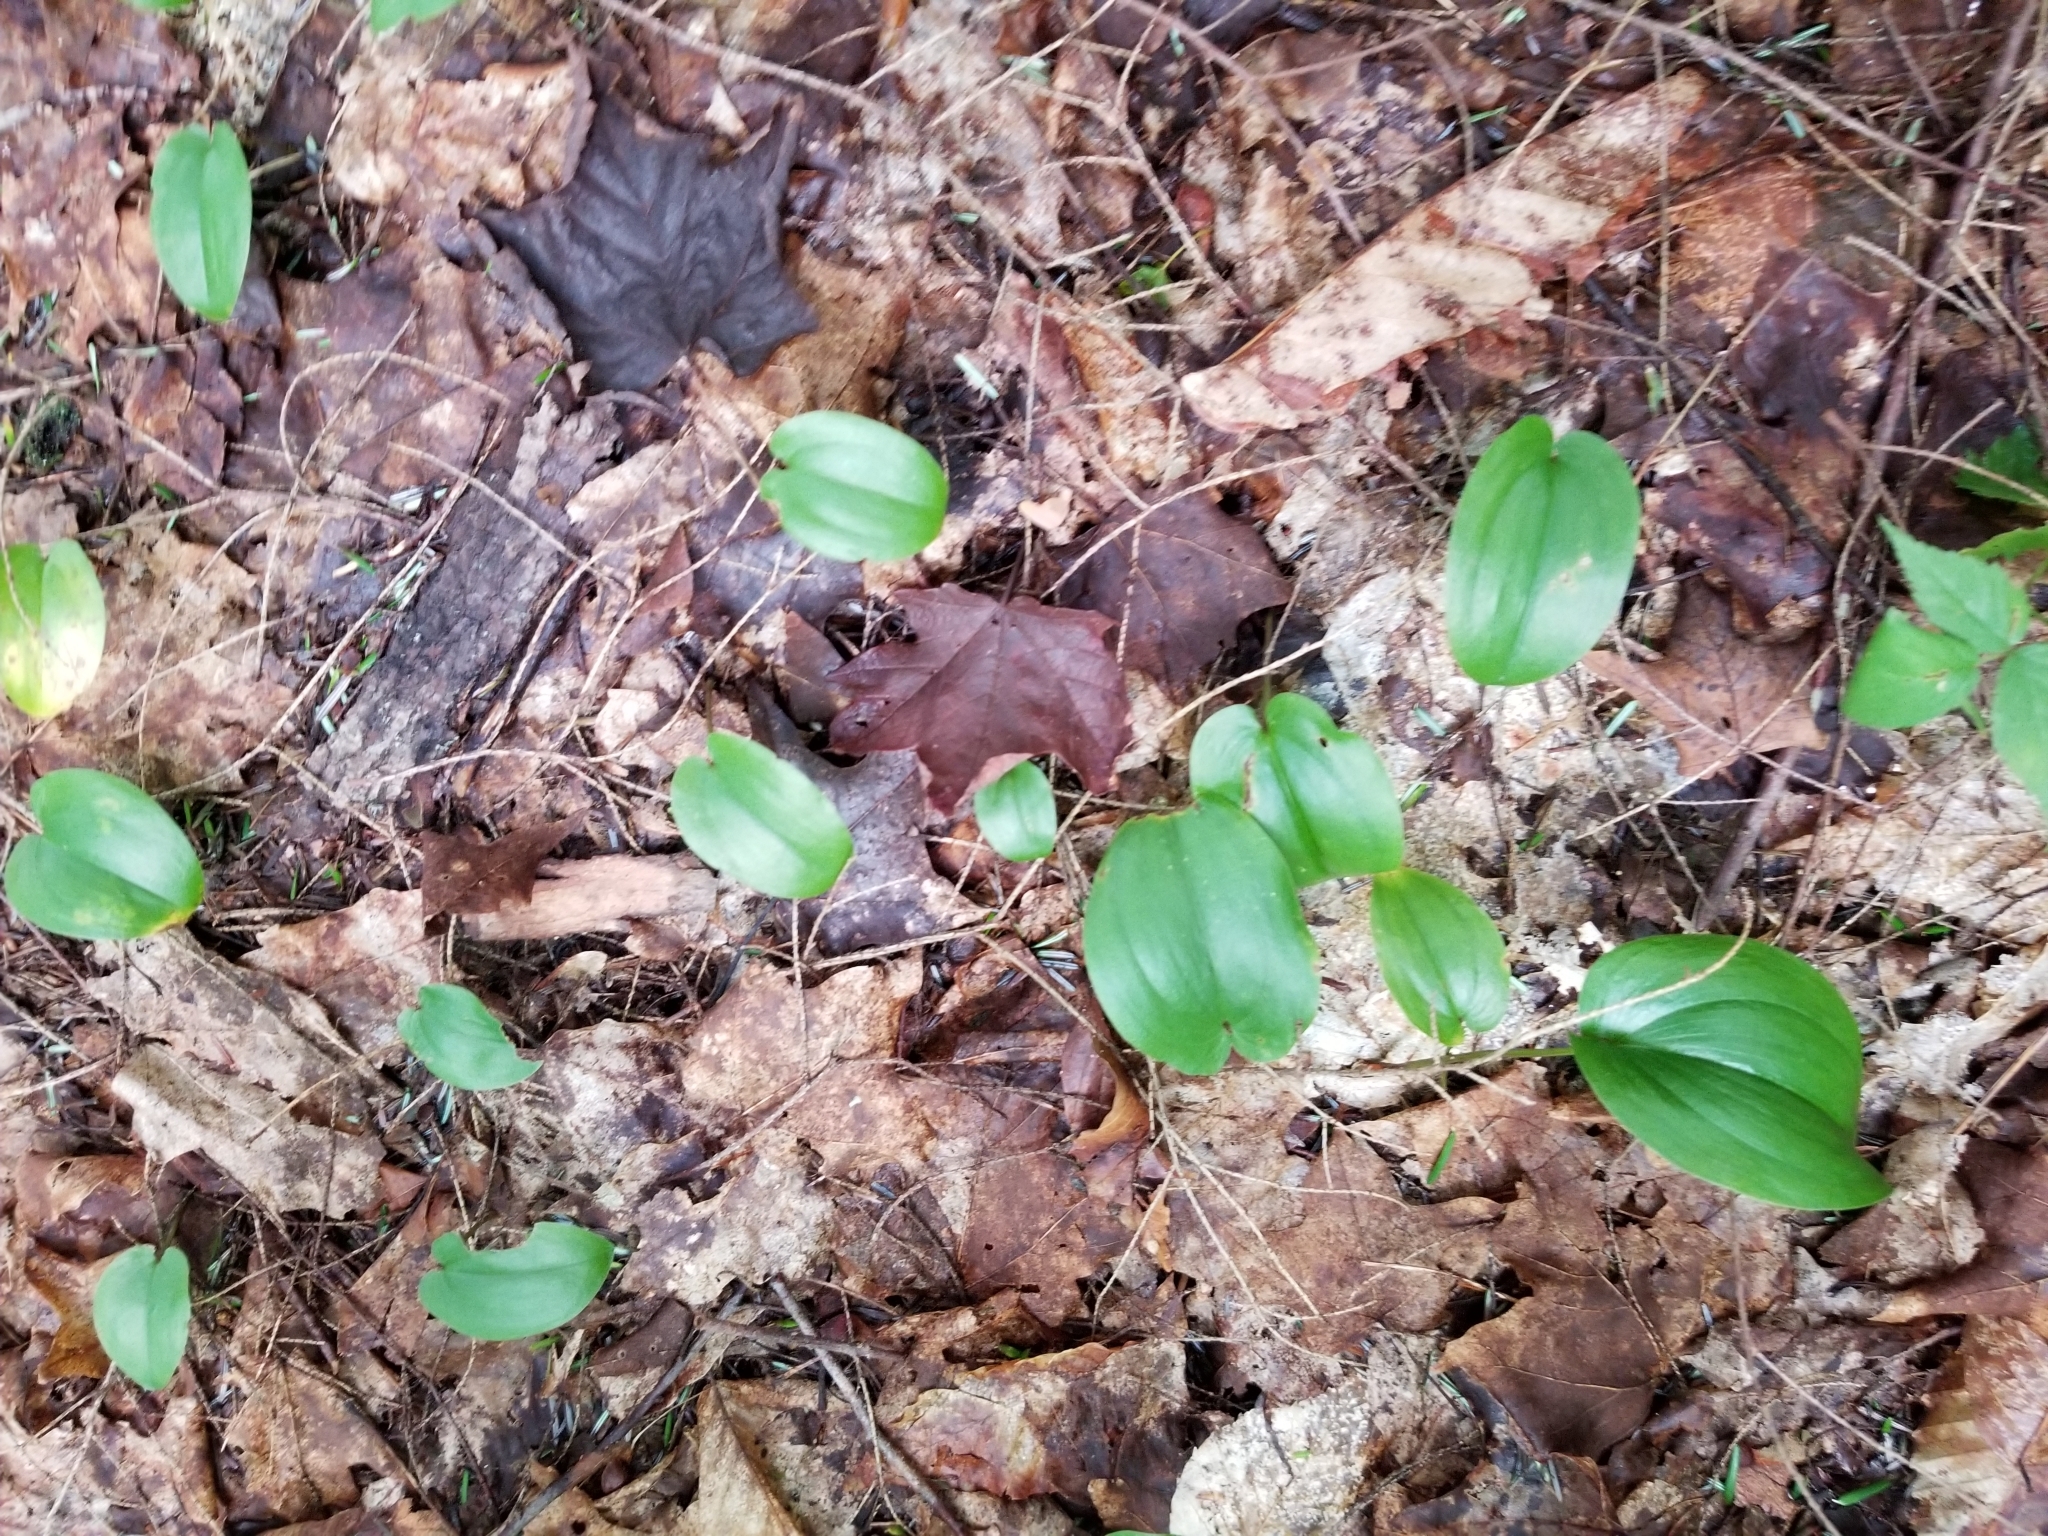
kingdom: Plantae
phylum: Tracheophyta
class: Liliopsida
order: Asparagales
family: Asparagaceae
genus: Maianthemum
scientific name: Maianthemum canadense
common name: False lily-of-the-valley
